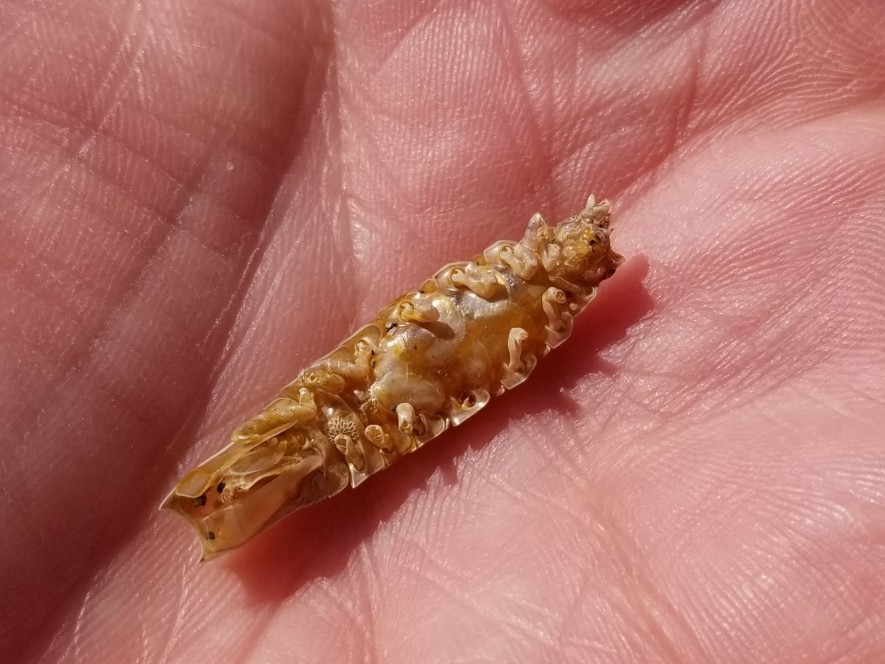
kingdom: Animalia
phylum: Arthropoda
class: Malacostraca
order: Isopoda
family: Idoteidae
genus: Pentidotea
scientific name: Pentidotea resecata
